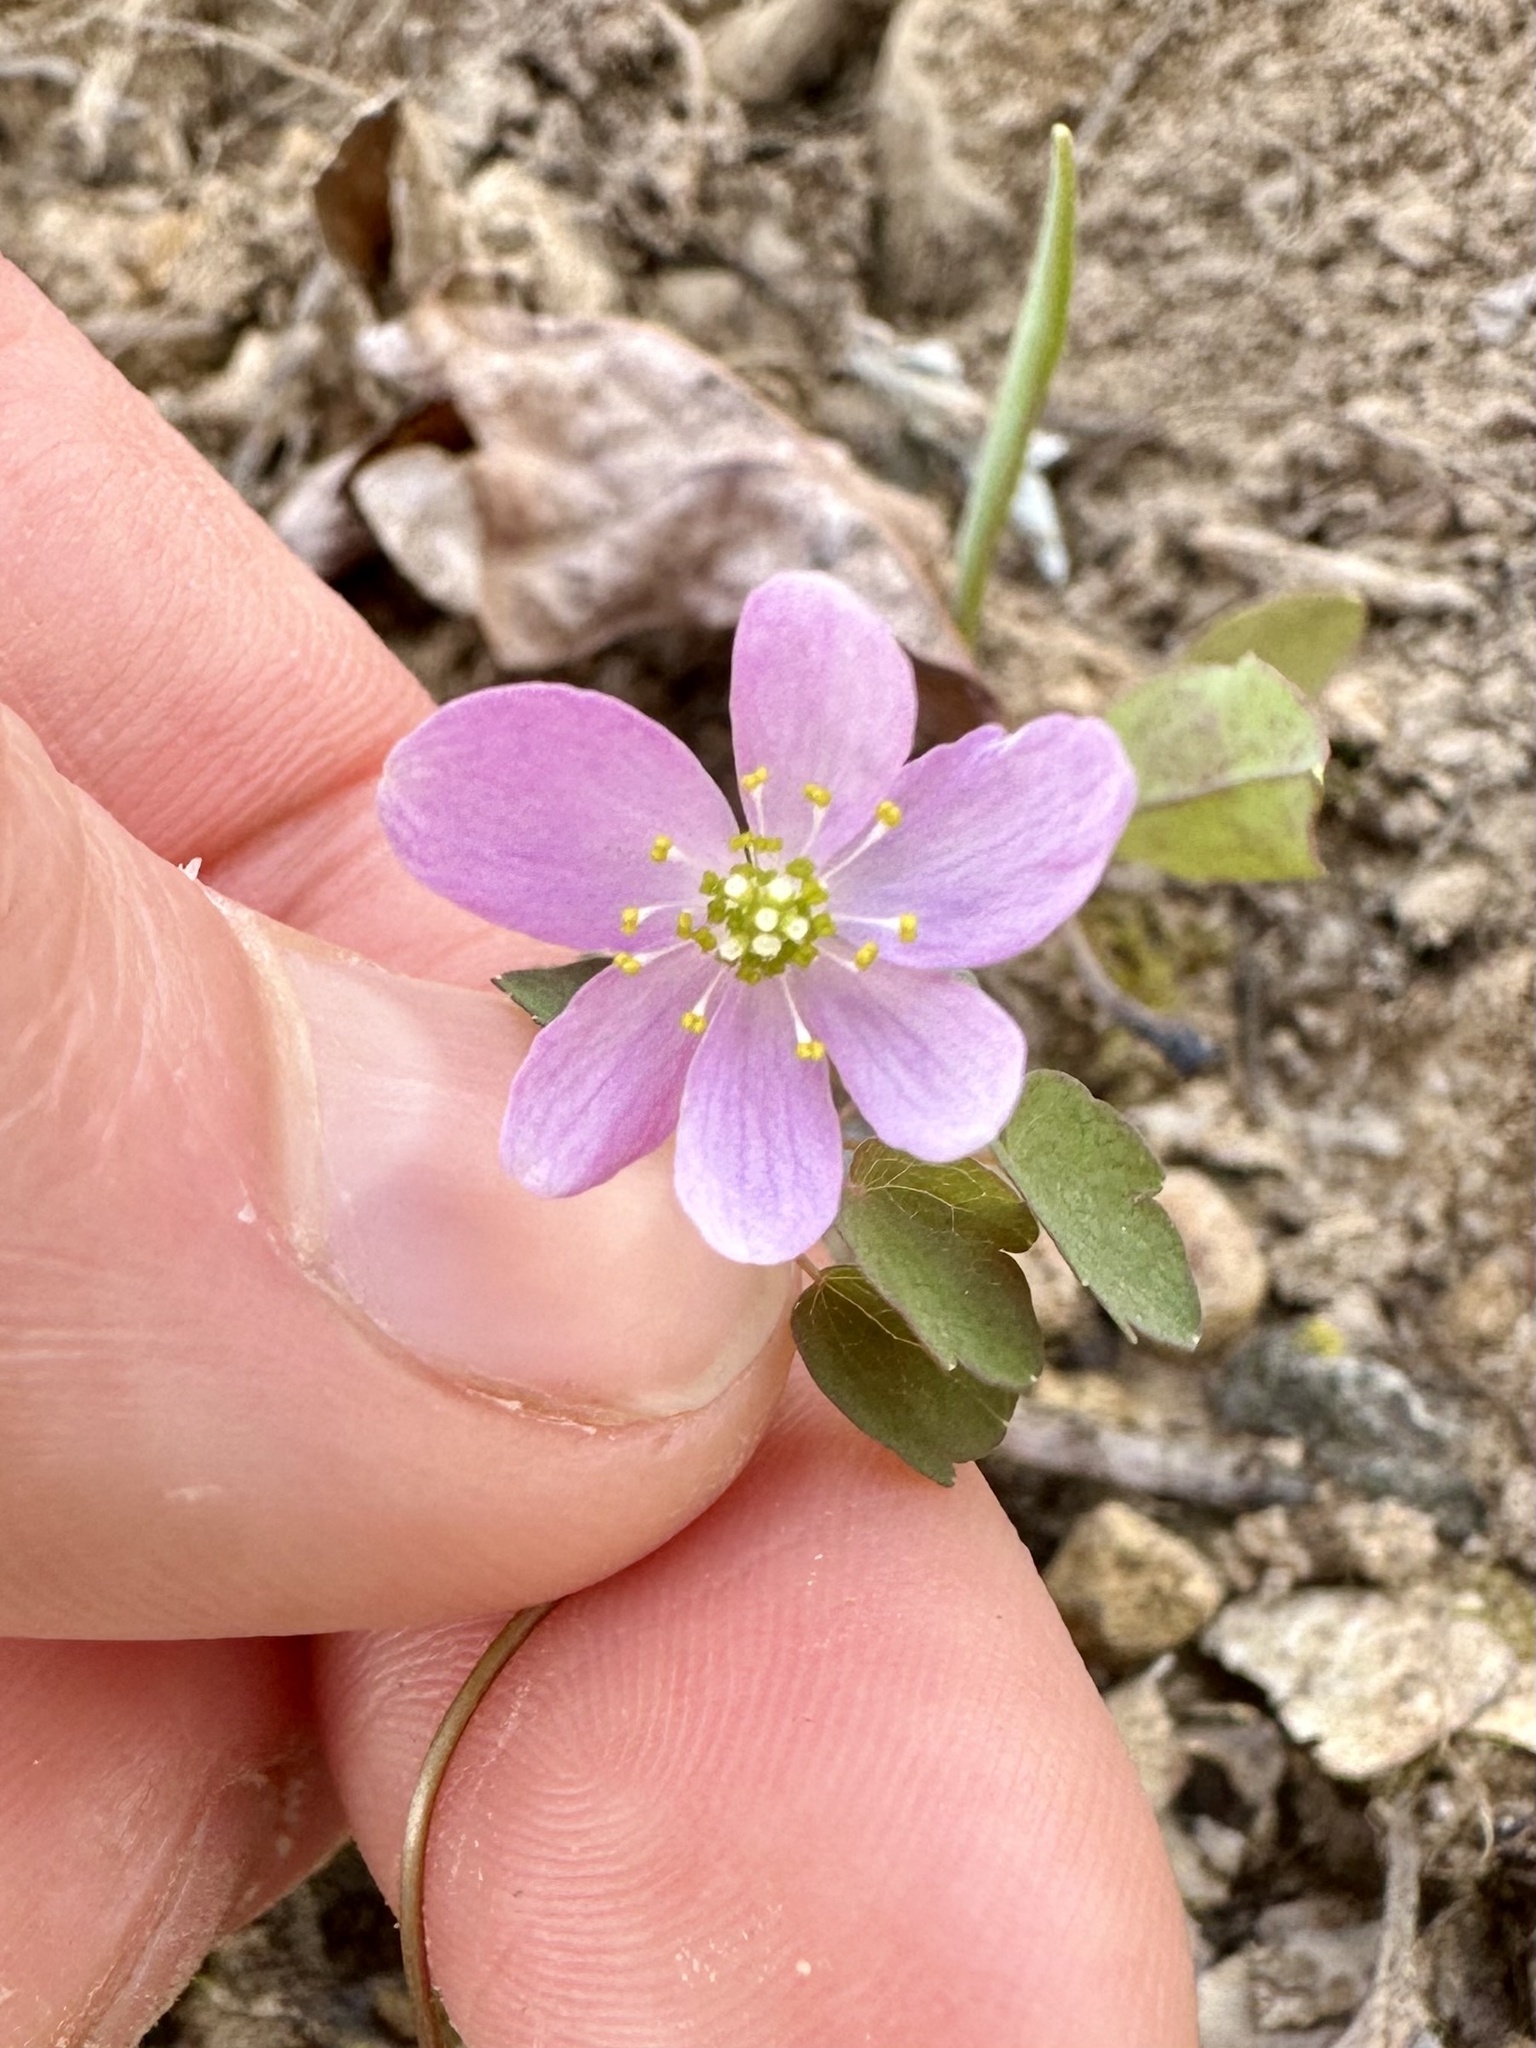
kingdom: Plantae
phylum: Tracheophyta
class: Magnoliopsida
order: Ranunculales
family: Ranunculaceae
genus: Thalictrum
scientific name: Thalictrum thalictroides
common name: Rue-anemone
